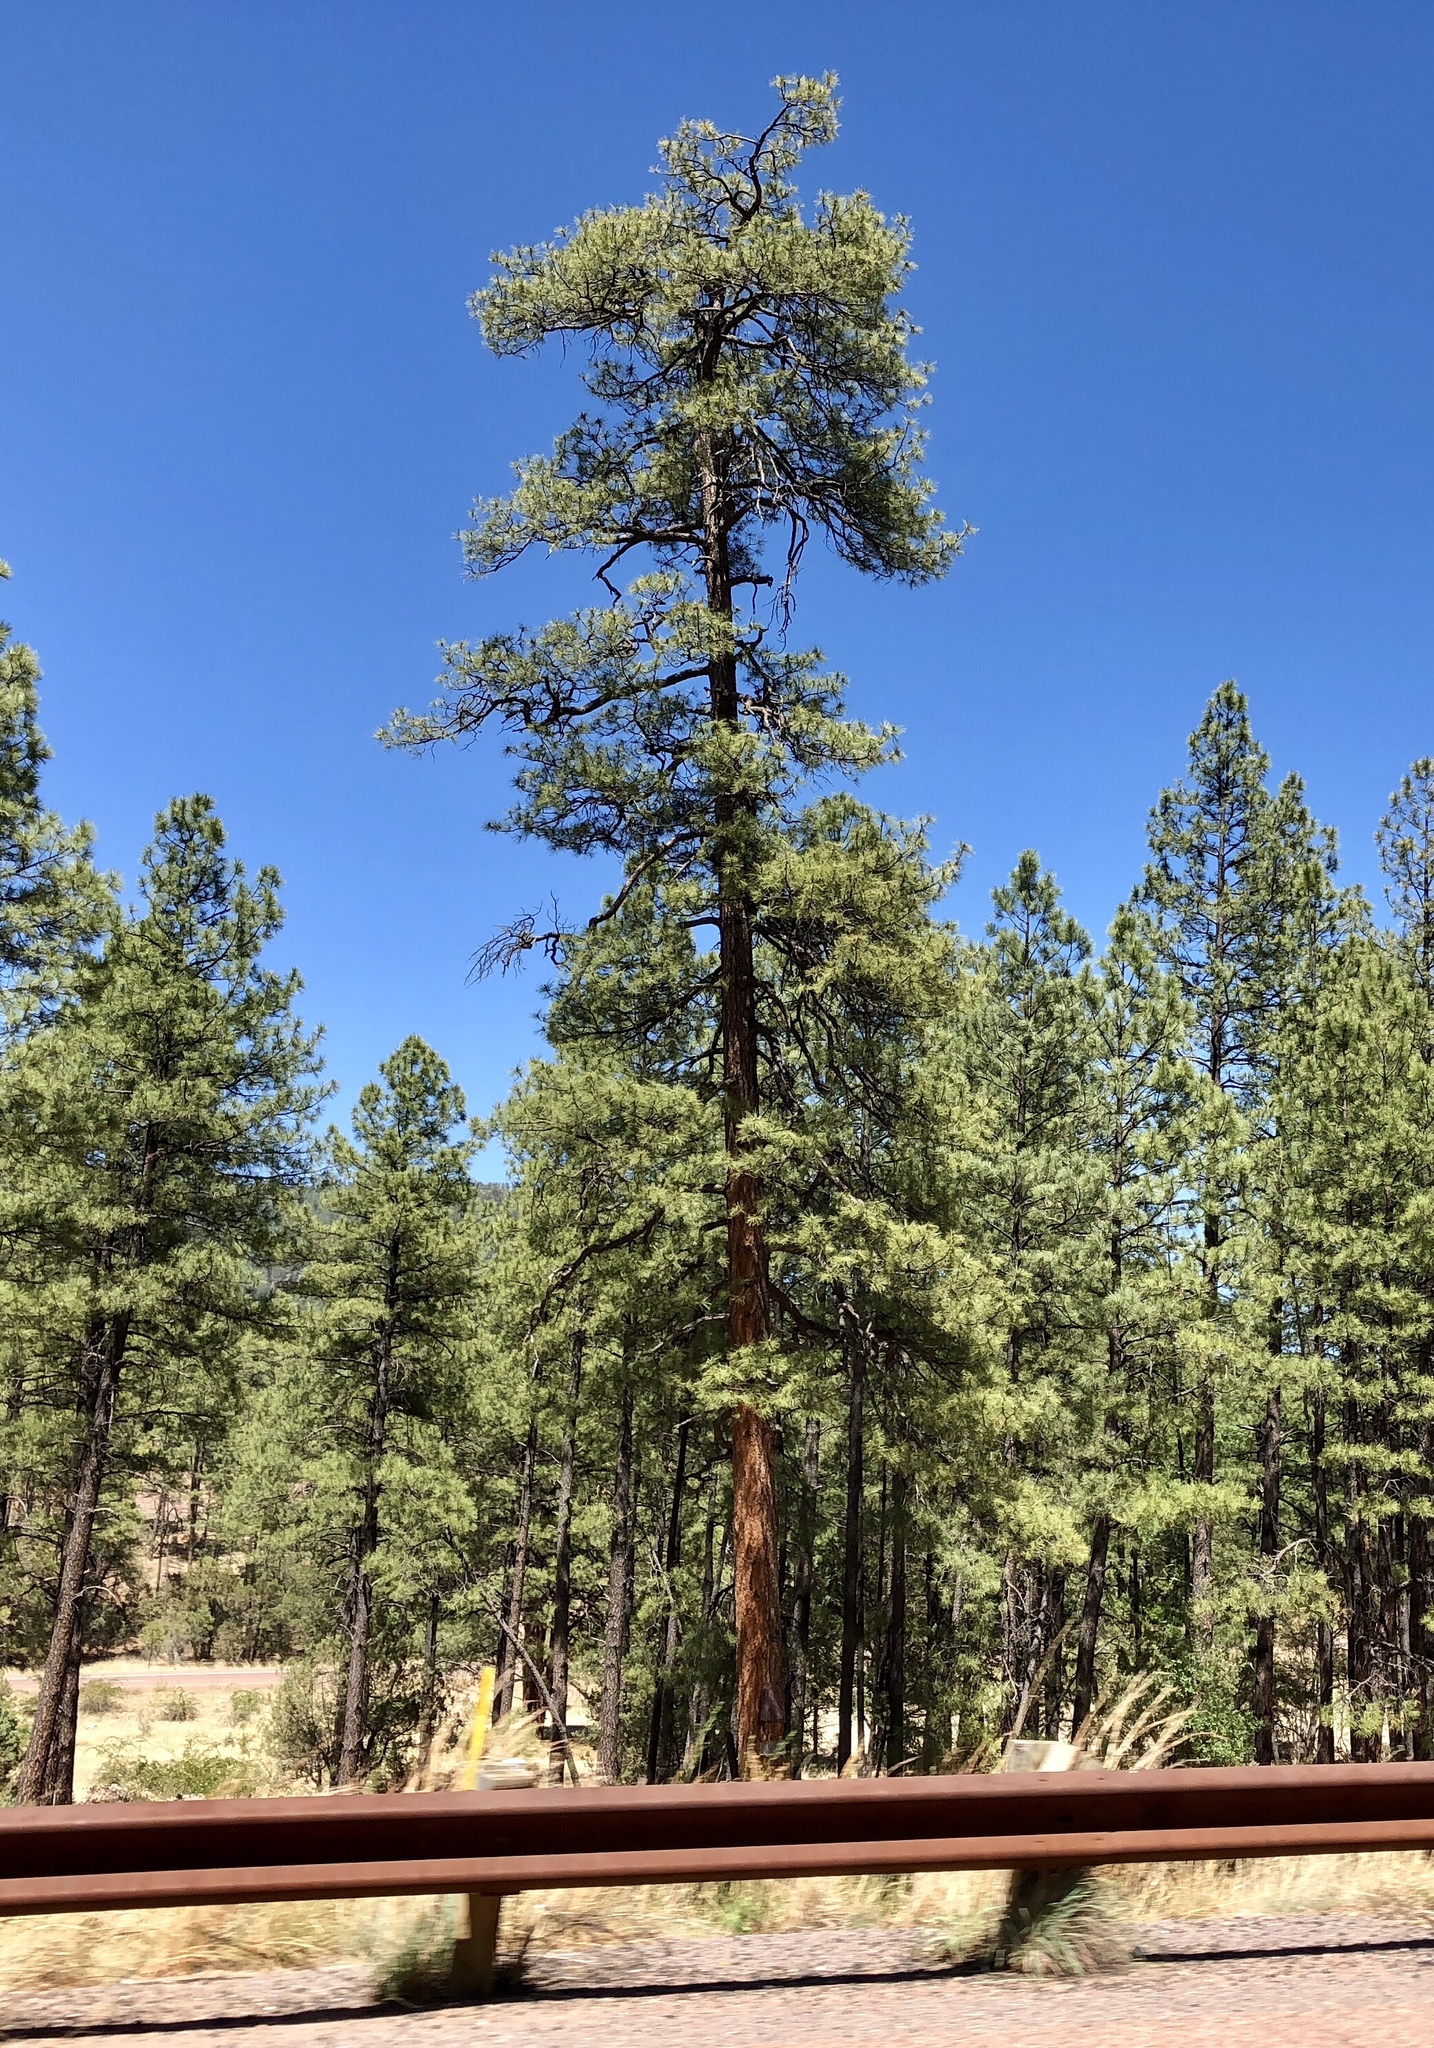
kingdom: Plantae
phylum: Tracheophyta
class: Pinopsida
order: Pinales
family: Pinaceae
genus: Pinus
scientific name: Pinus ponderosa
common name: Western yellow-pine
